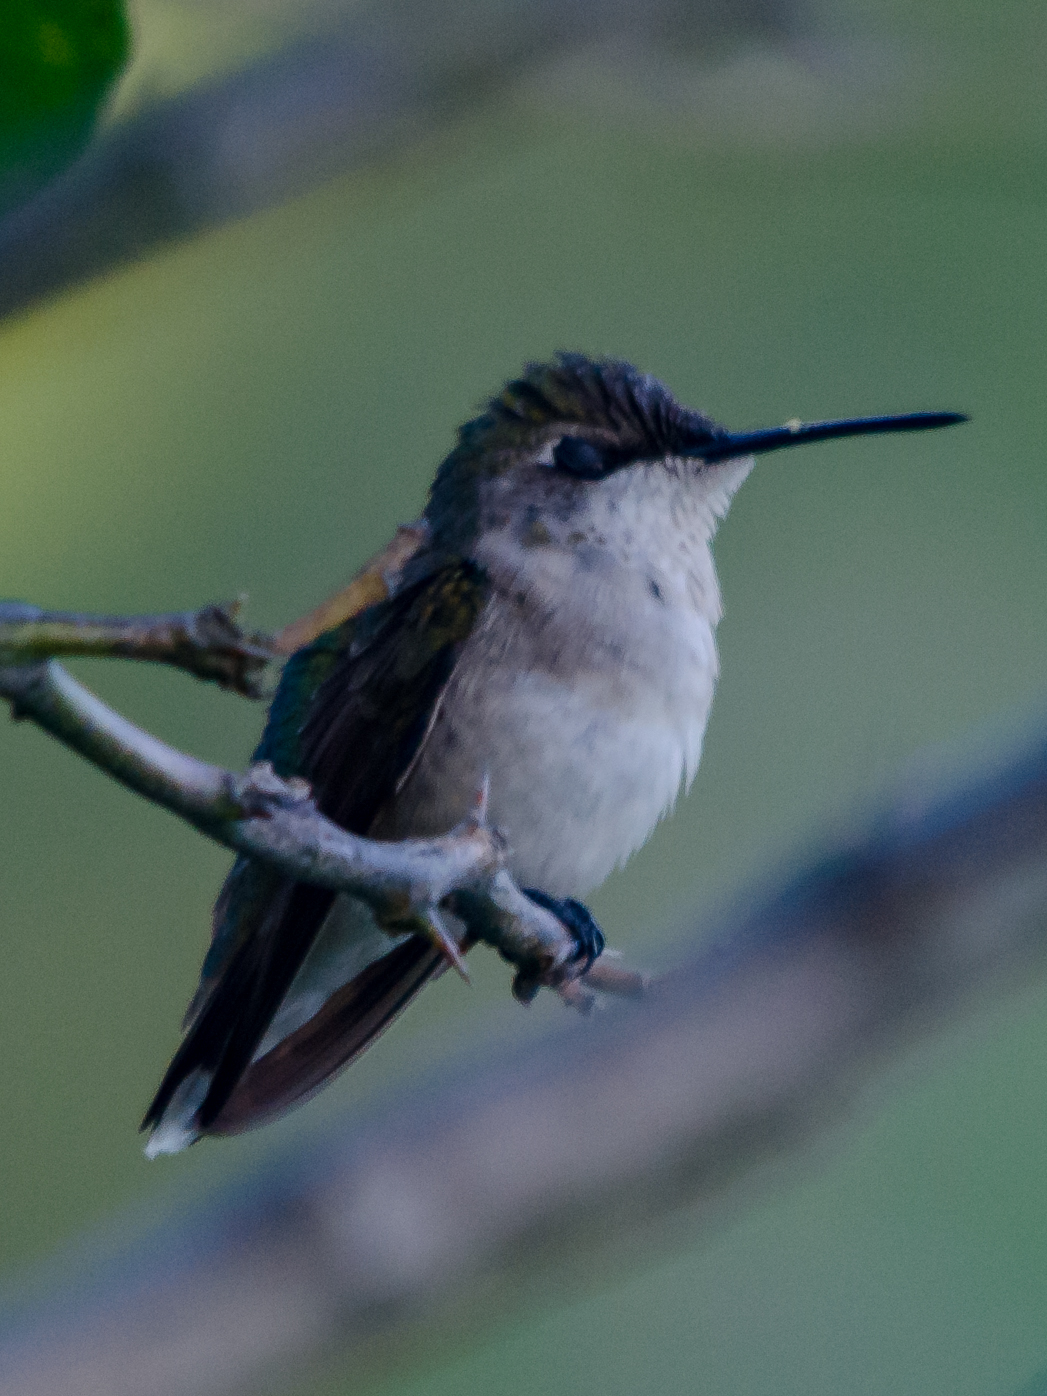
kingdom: Animalia
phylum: Chordata
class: Aves
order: Apodiformes
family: Trochilidae
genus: Archilochus
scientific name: Archilochus colubris
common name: Ruby-throated hummingbird
